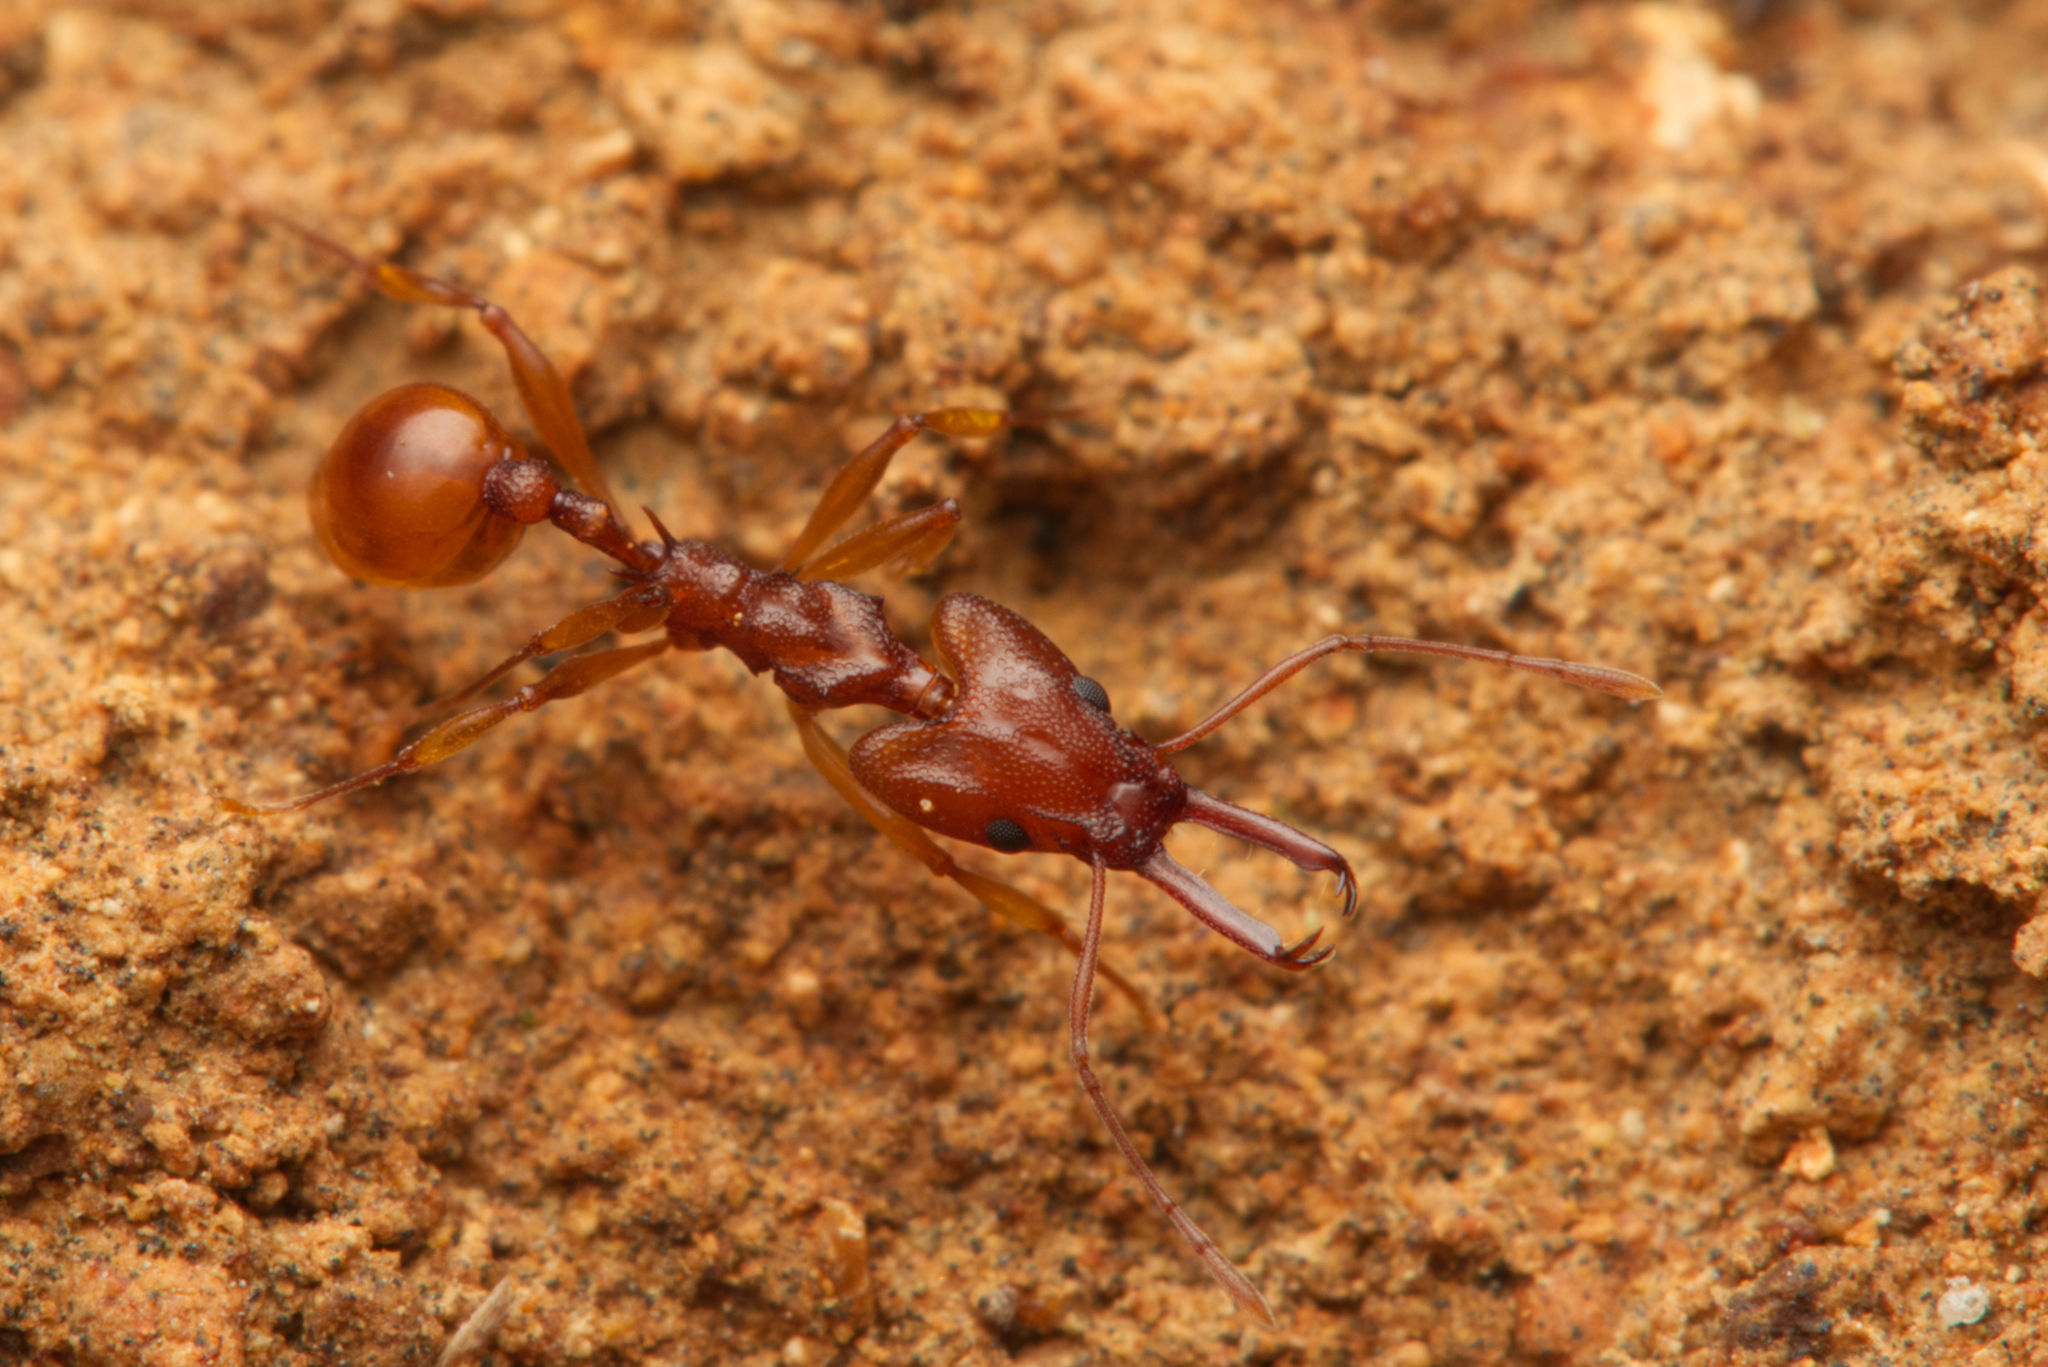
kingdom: Animalia
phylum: Arthropoda
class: Insecta
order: Hymenoptera
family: Formicidae
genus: Orectognathus
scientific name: Orectognathus antennatus
